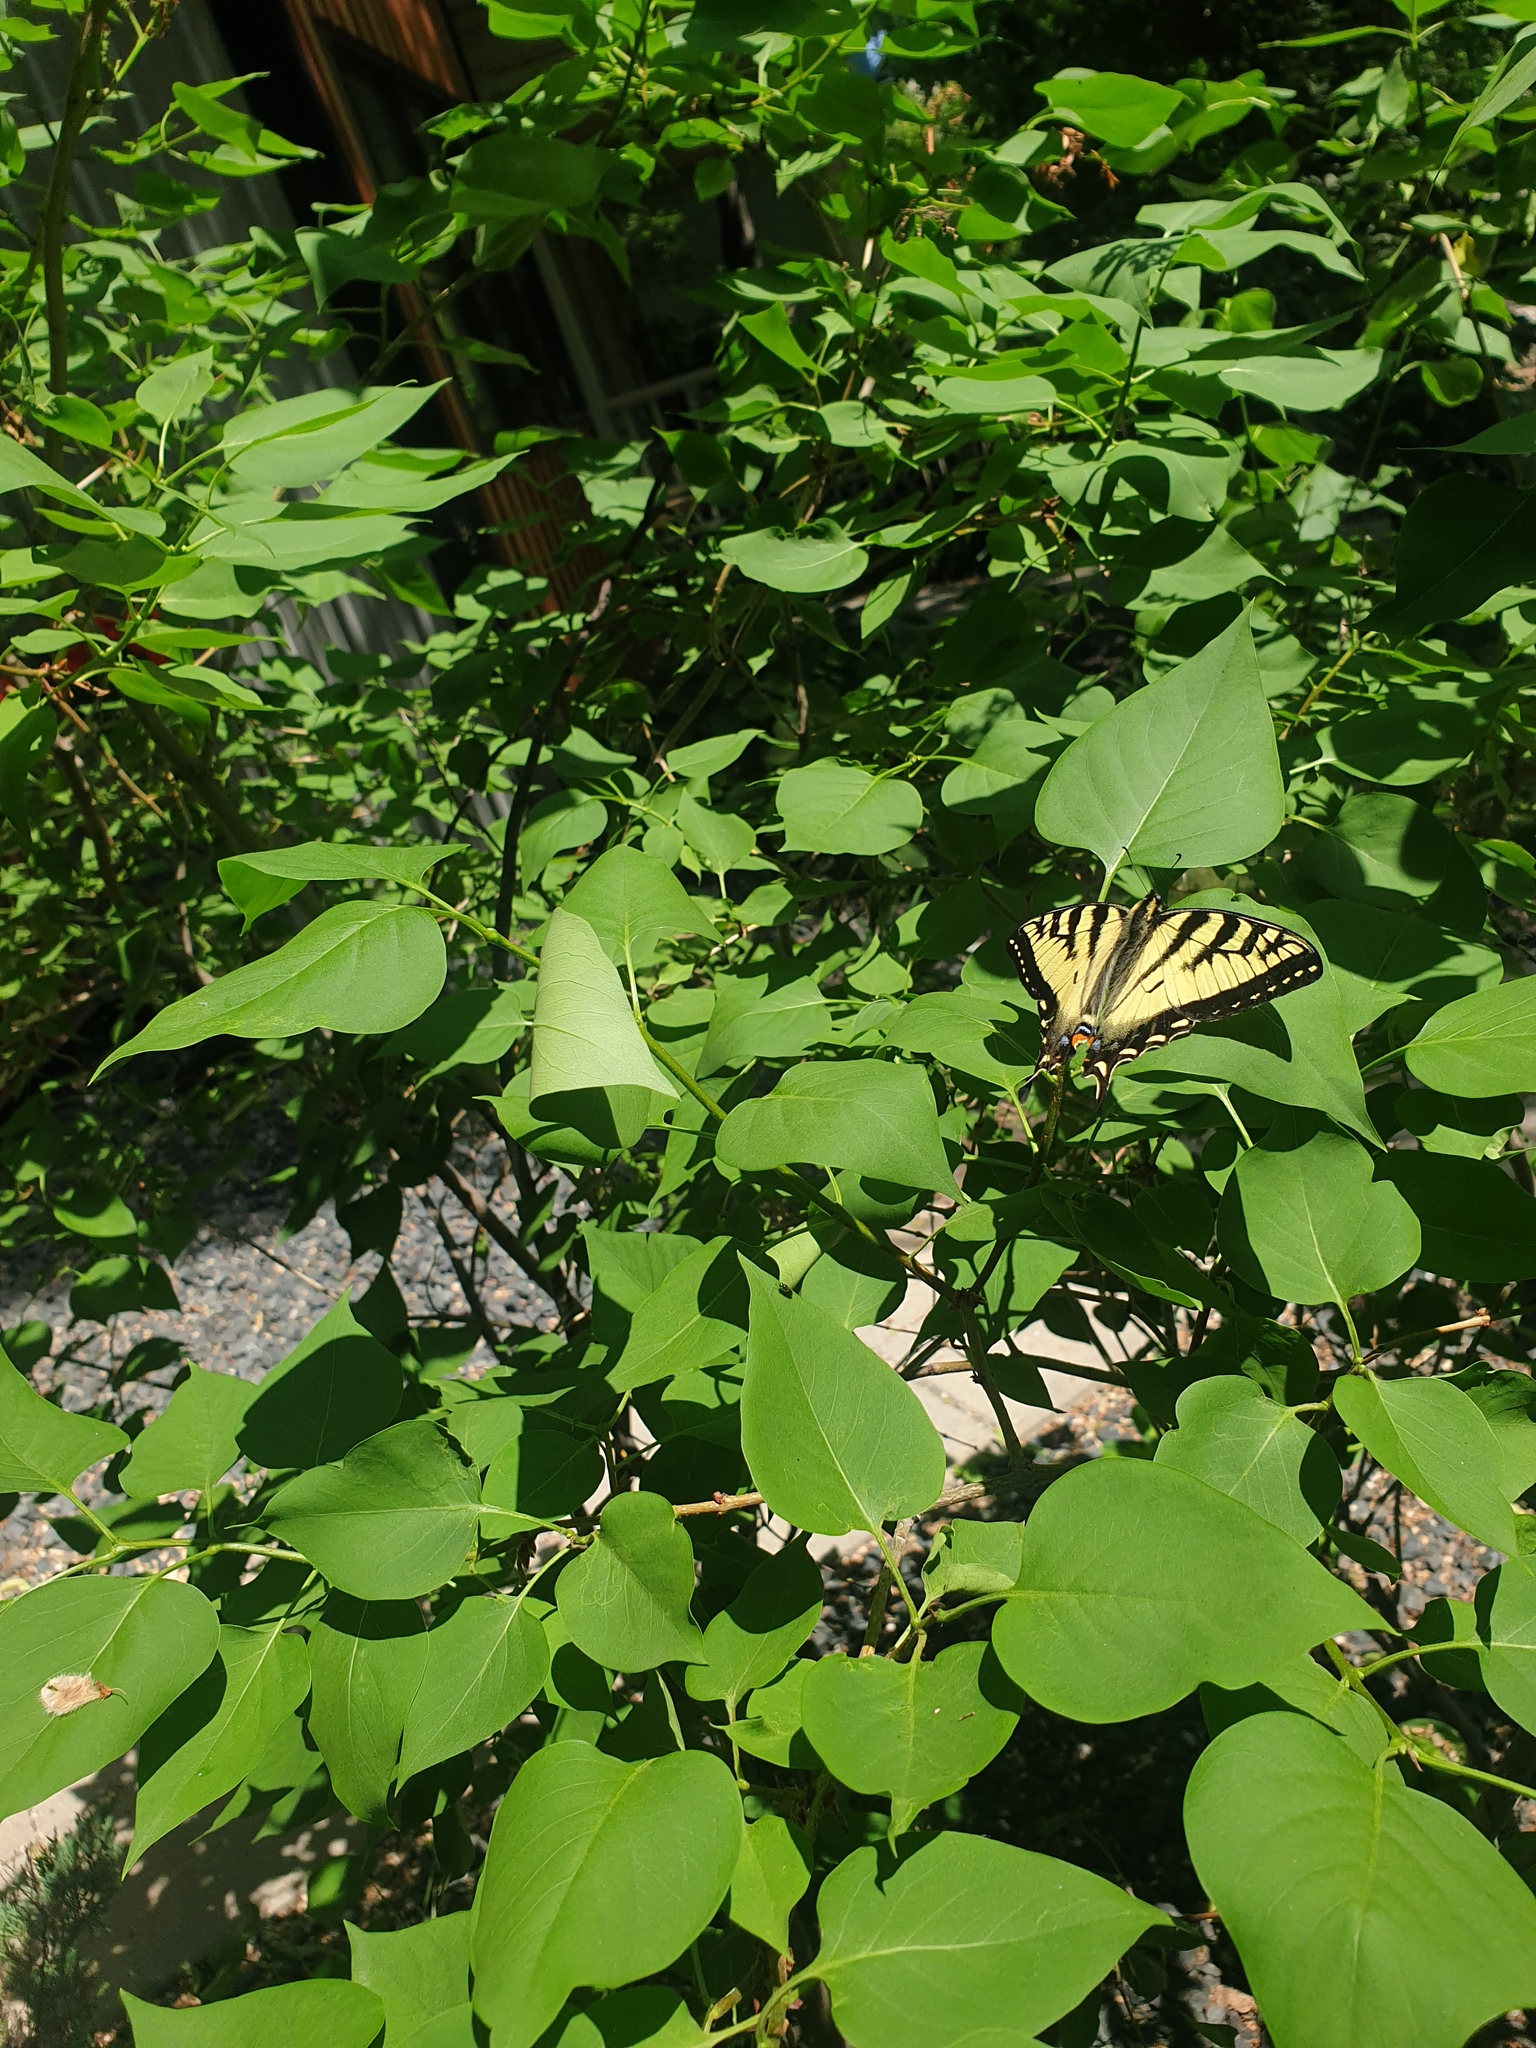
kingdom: Animalia
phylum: Arthropoda
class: Insecta
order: Lepidoptera
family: Papilionidae
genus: Papilio
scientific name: Papilio canadensis
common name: Canadian tiger swallowtail
